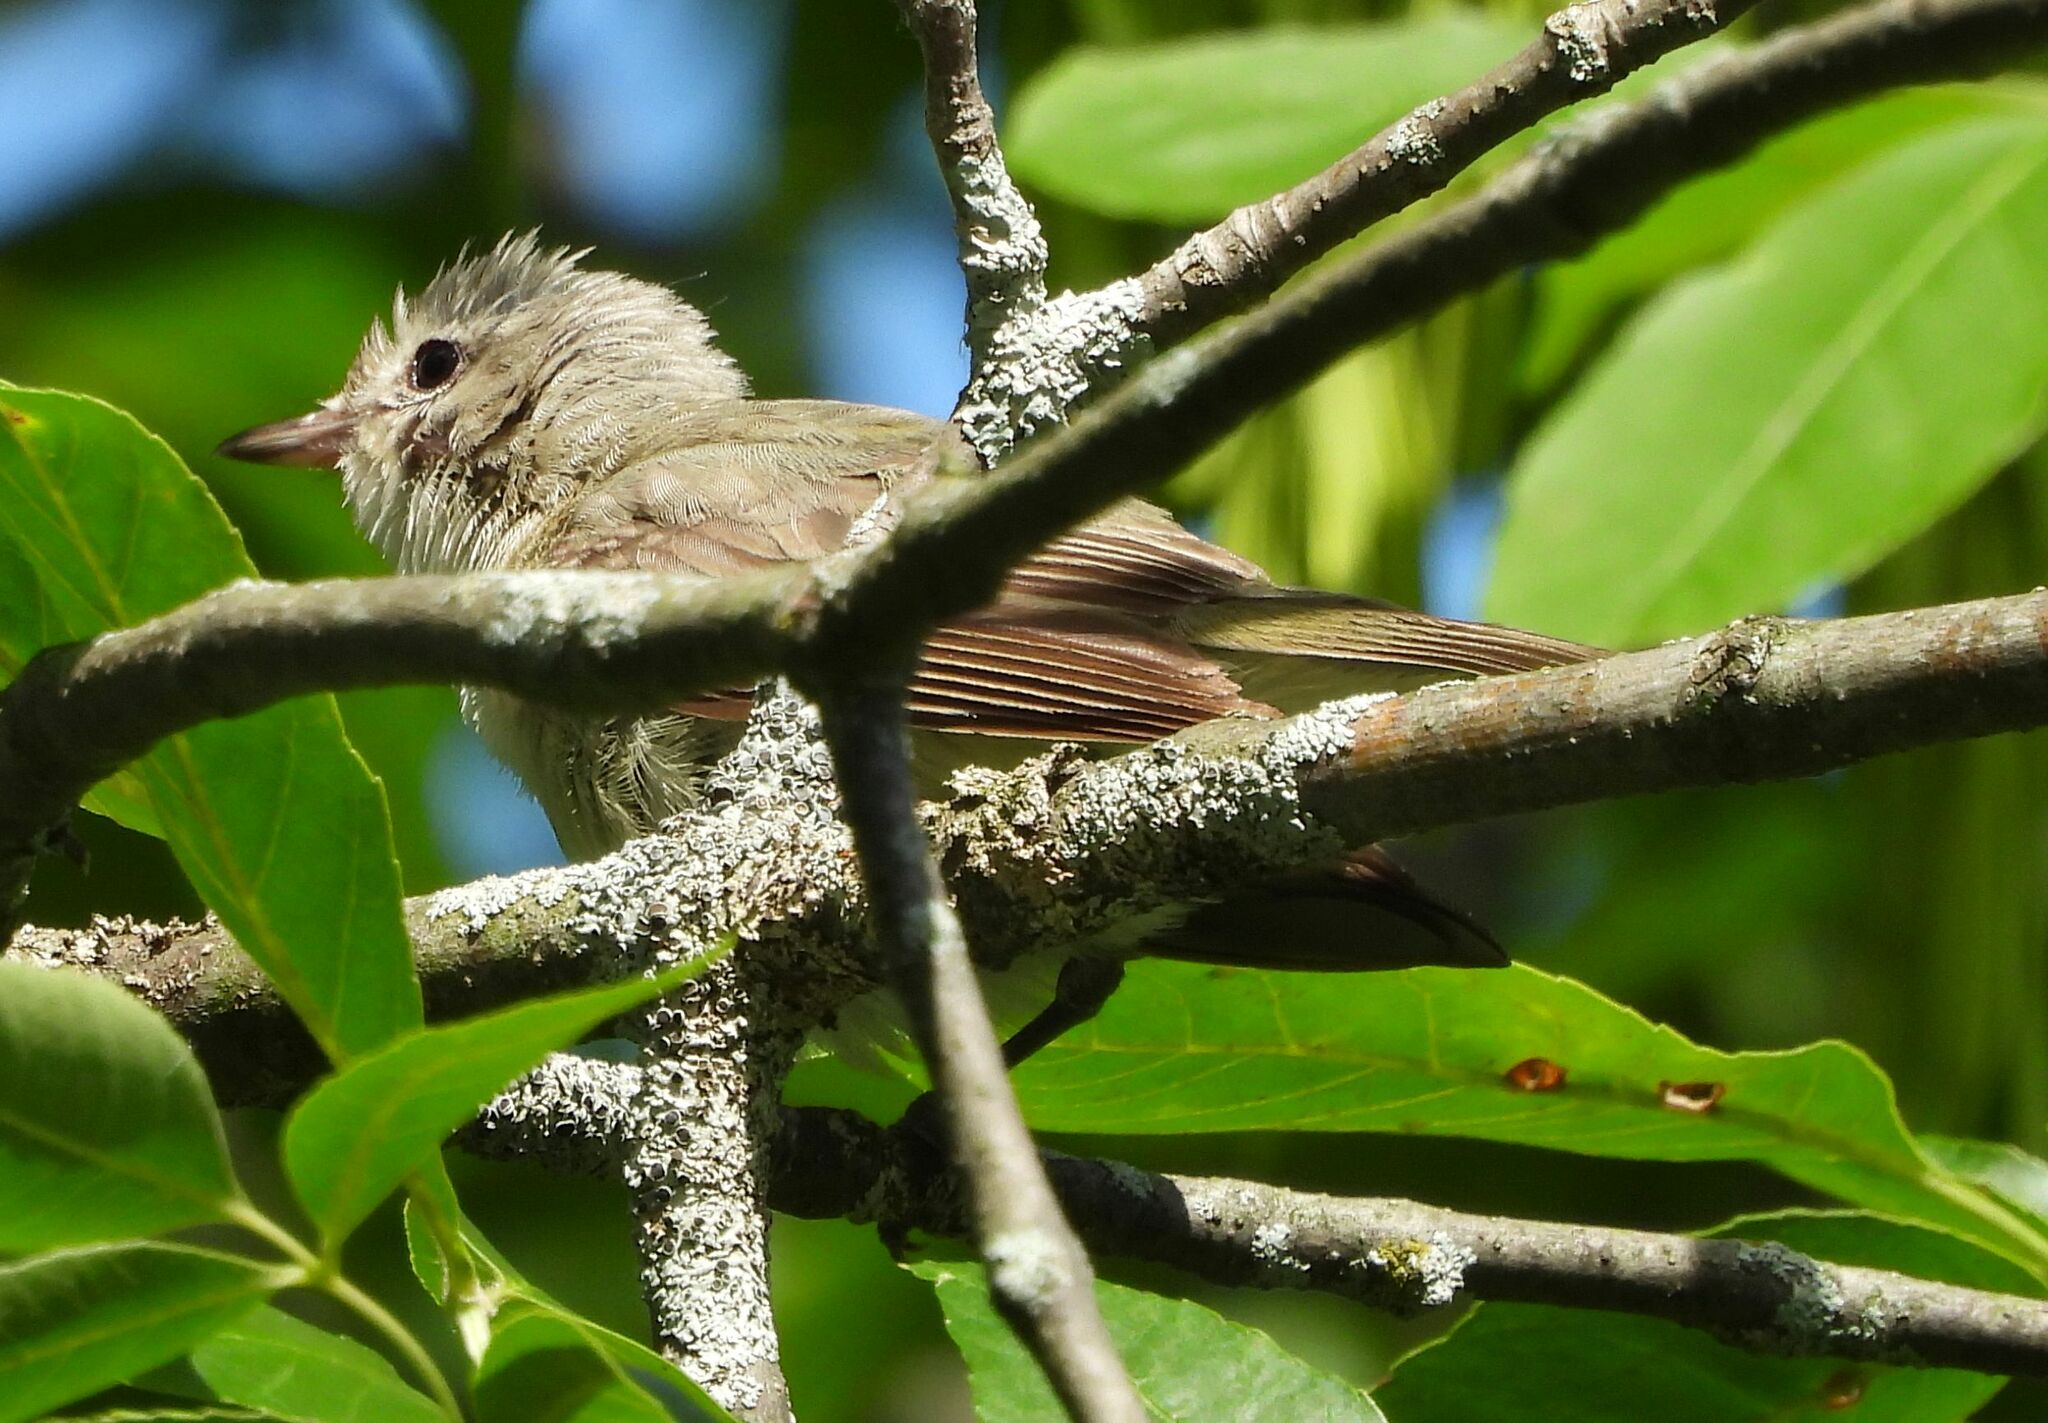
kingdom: Animalia
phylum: Chordata
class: Aves
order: Passeriformes
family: Vireonidae
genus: Vireo
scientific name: Vireo gilvus
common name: Warbling vireo
